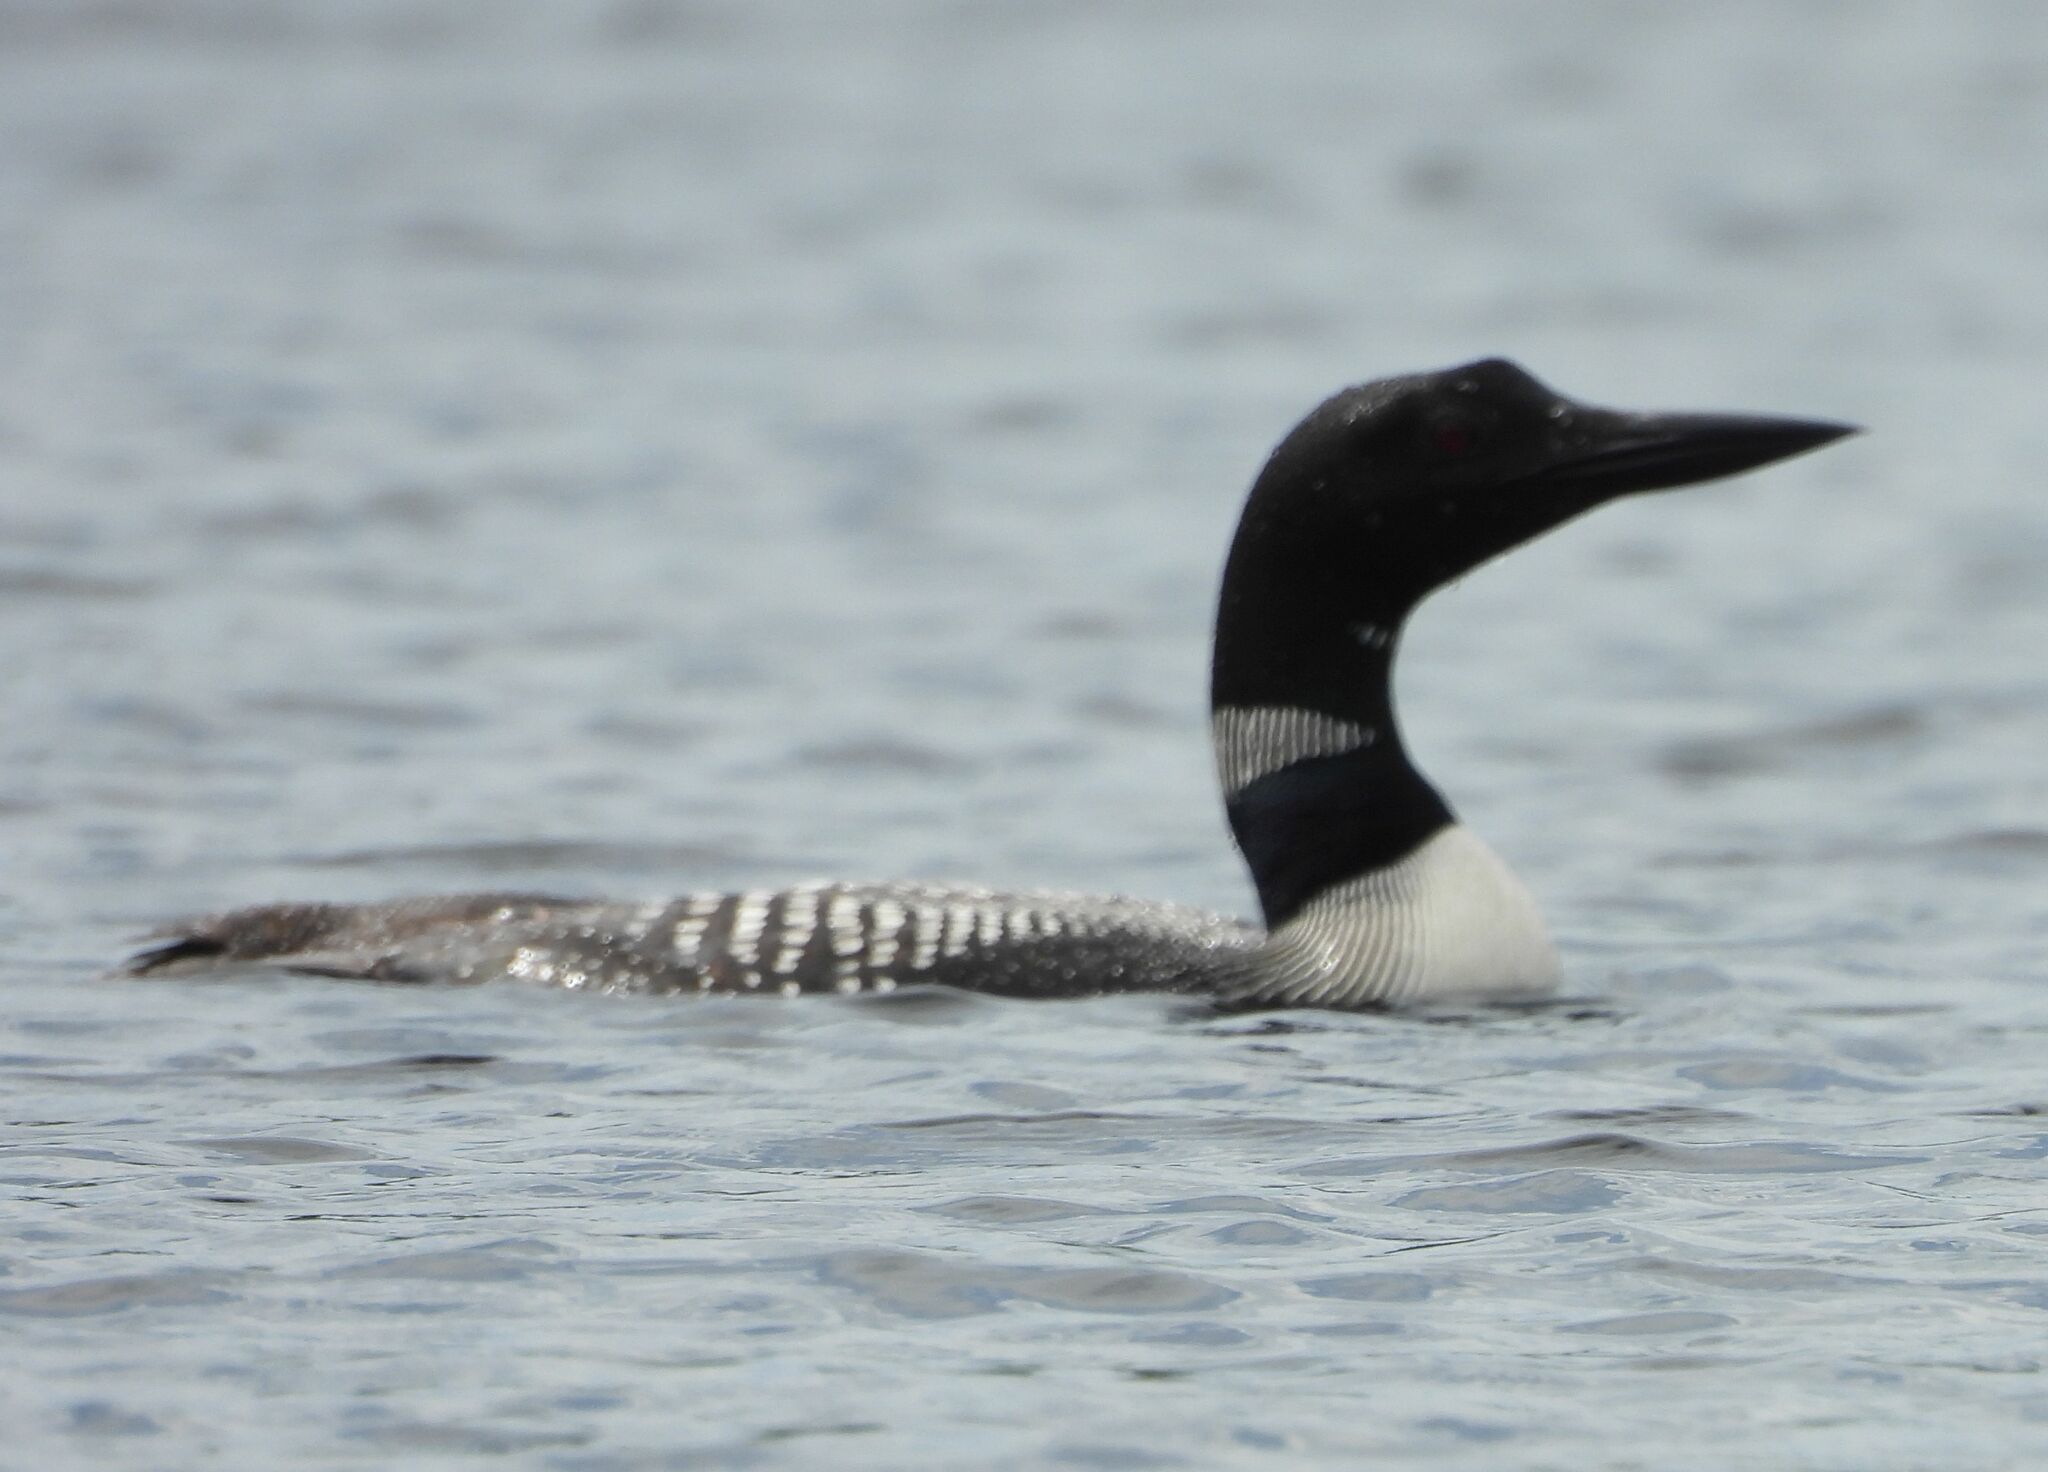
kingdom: Animalia
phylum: Chordata
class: Aves
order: Gaviiformes
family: Gaviidae
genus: Gavia
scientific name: Gavia immer
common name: Common loon
